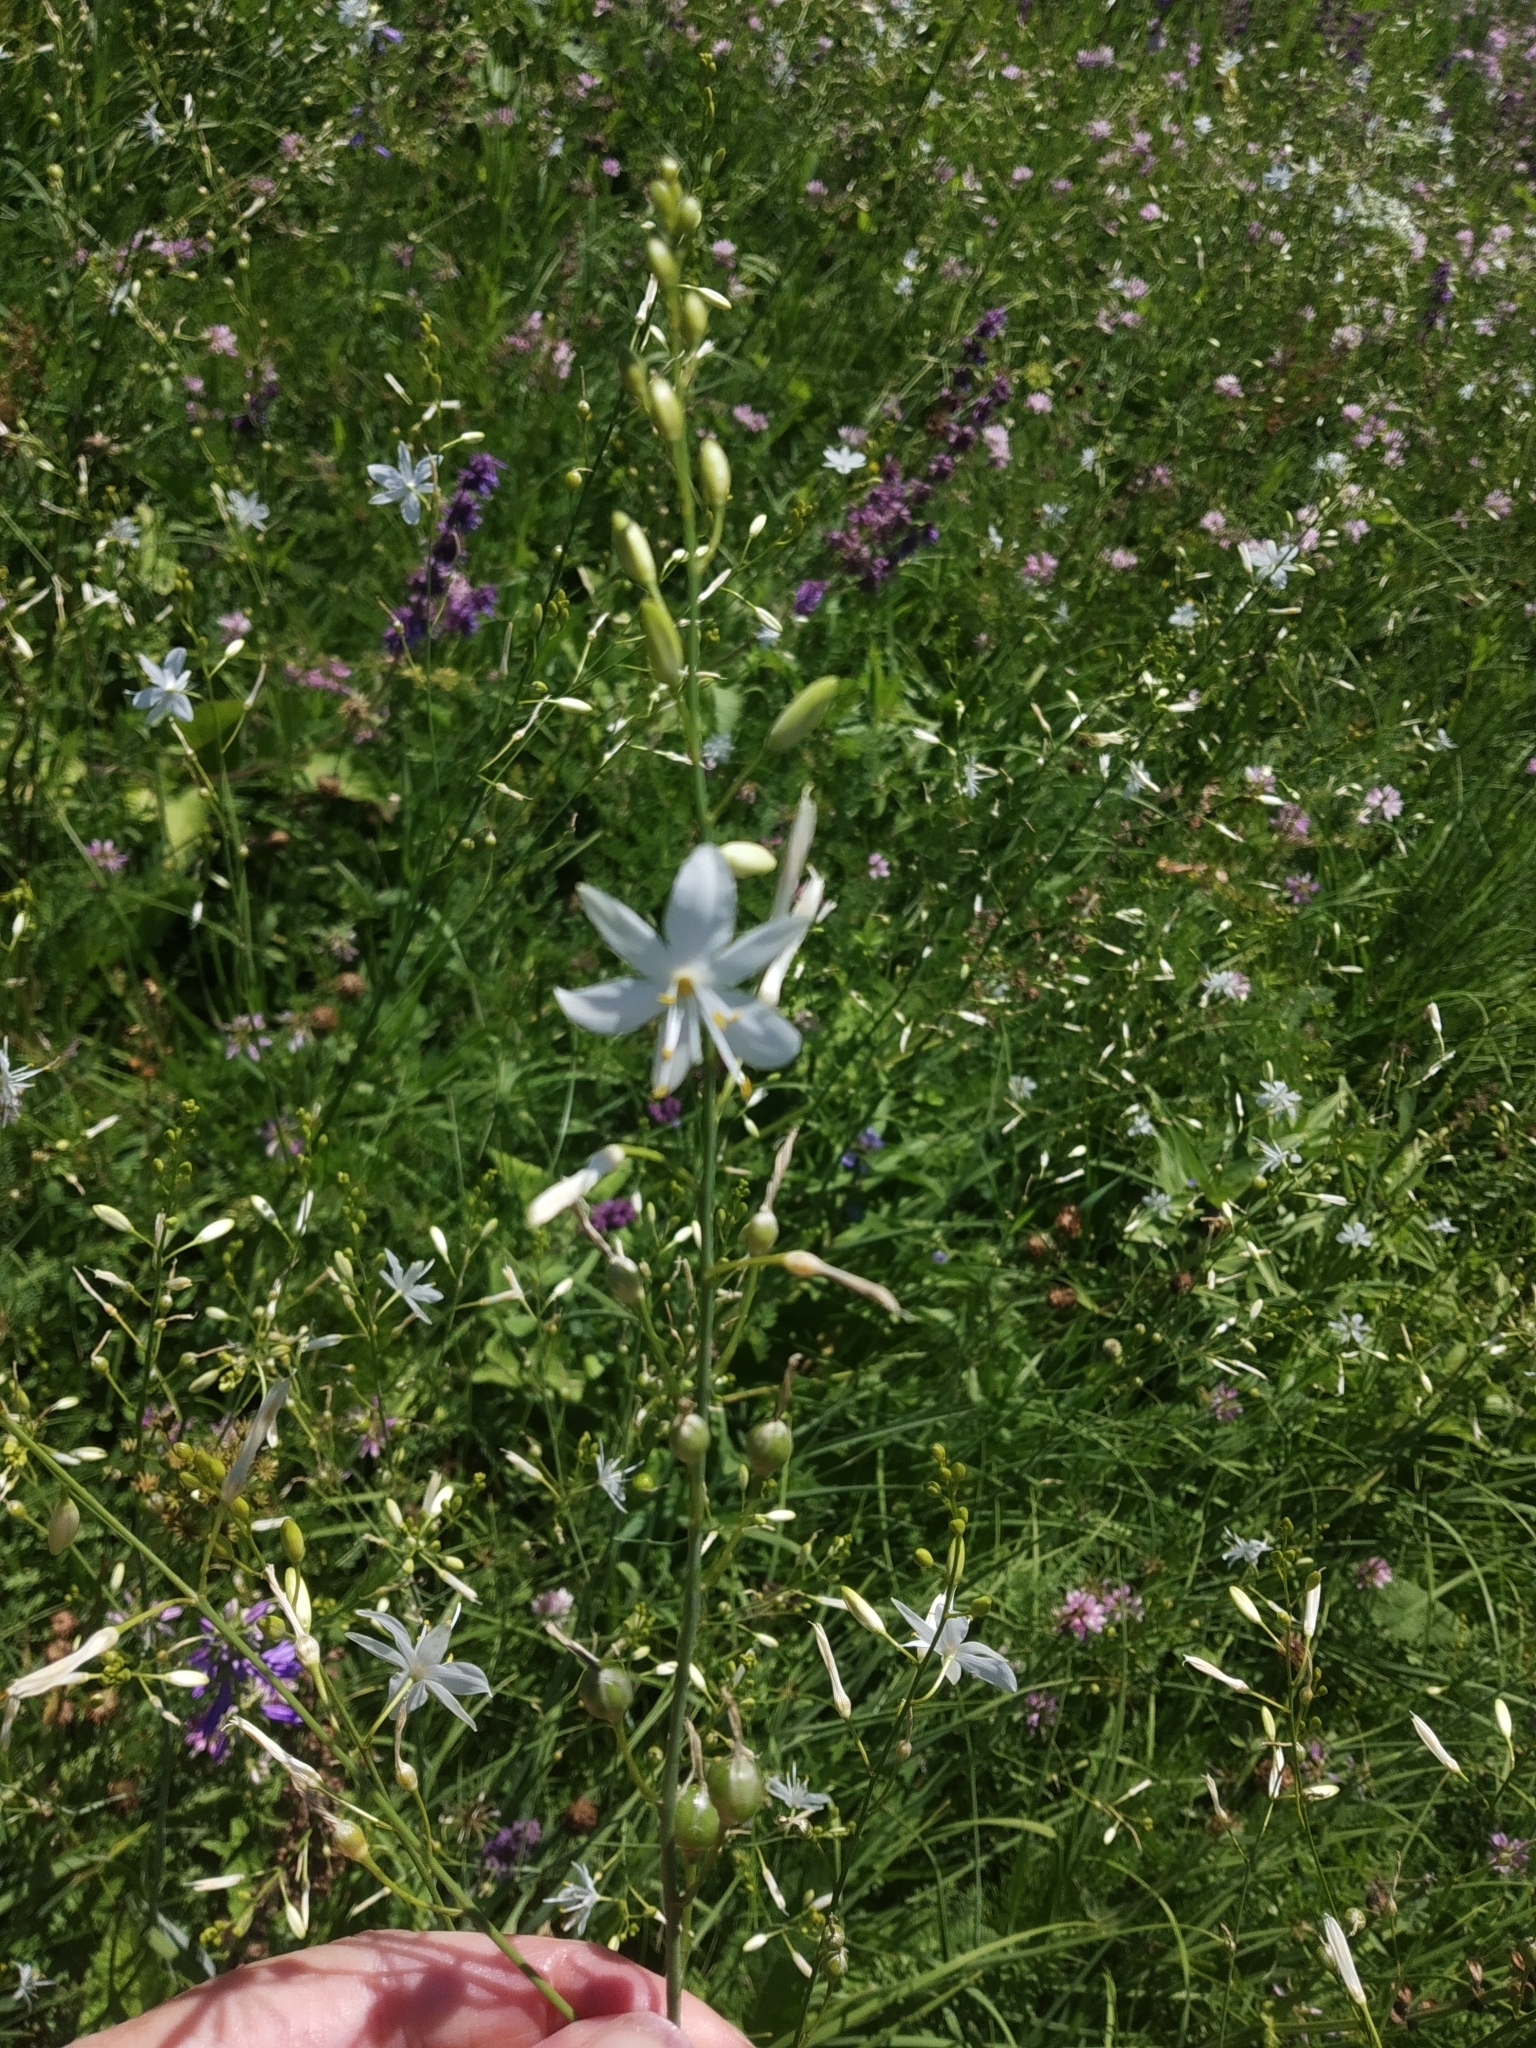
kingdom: Plantae
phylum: Tracheophyta
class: Liliopsida
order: Asparagales
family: Asparagaceae
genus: Anthericum
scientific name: Anthericum ramosum
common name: Branched st. bernard's-lily
